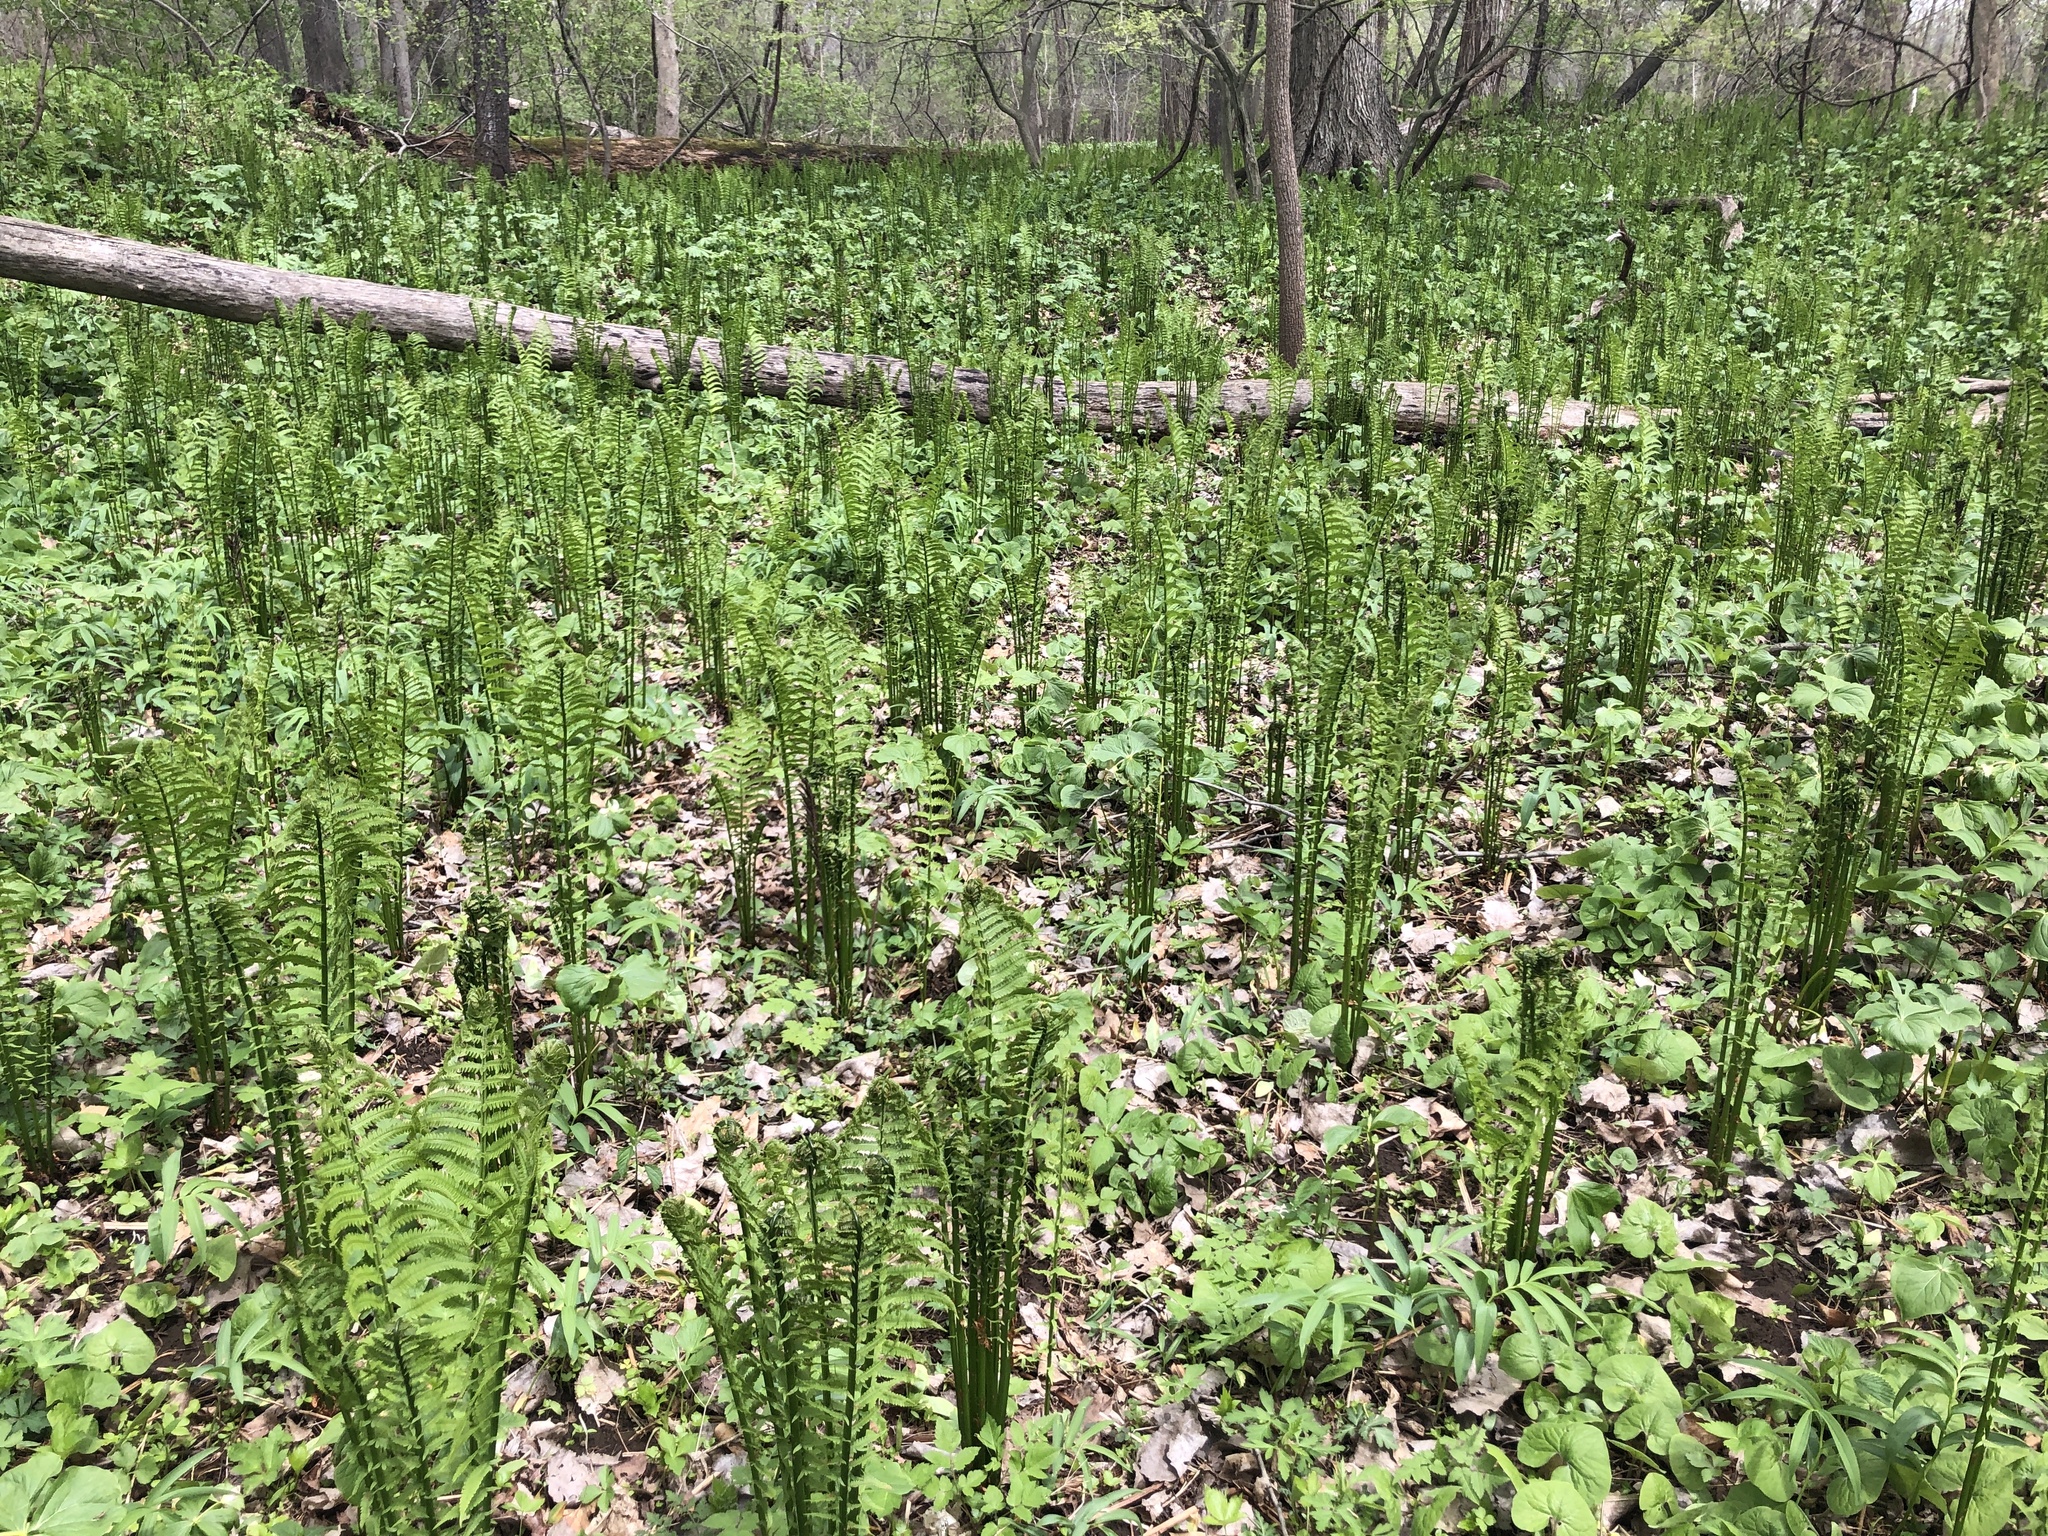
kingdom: Plantae
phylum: Tracheophyta
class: Polypodiopsida
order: Polypodiales
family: Onocleaceae
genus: Matteuccia
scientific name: Matteuccia struthiopteris
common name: Ostrich fern
